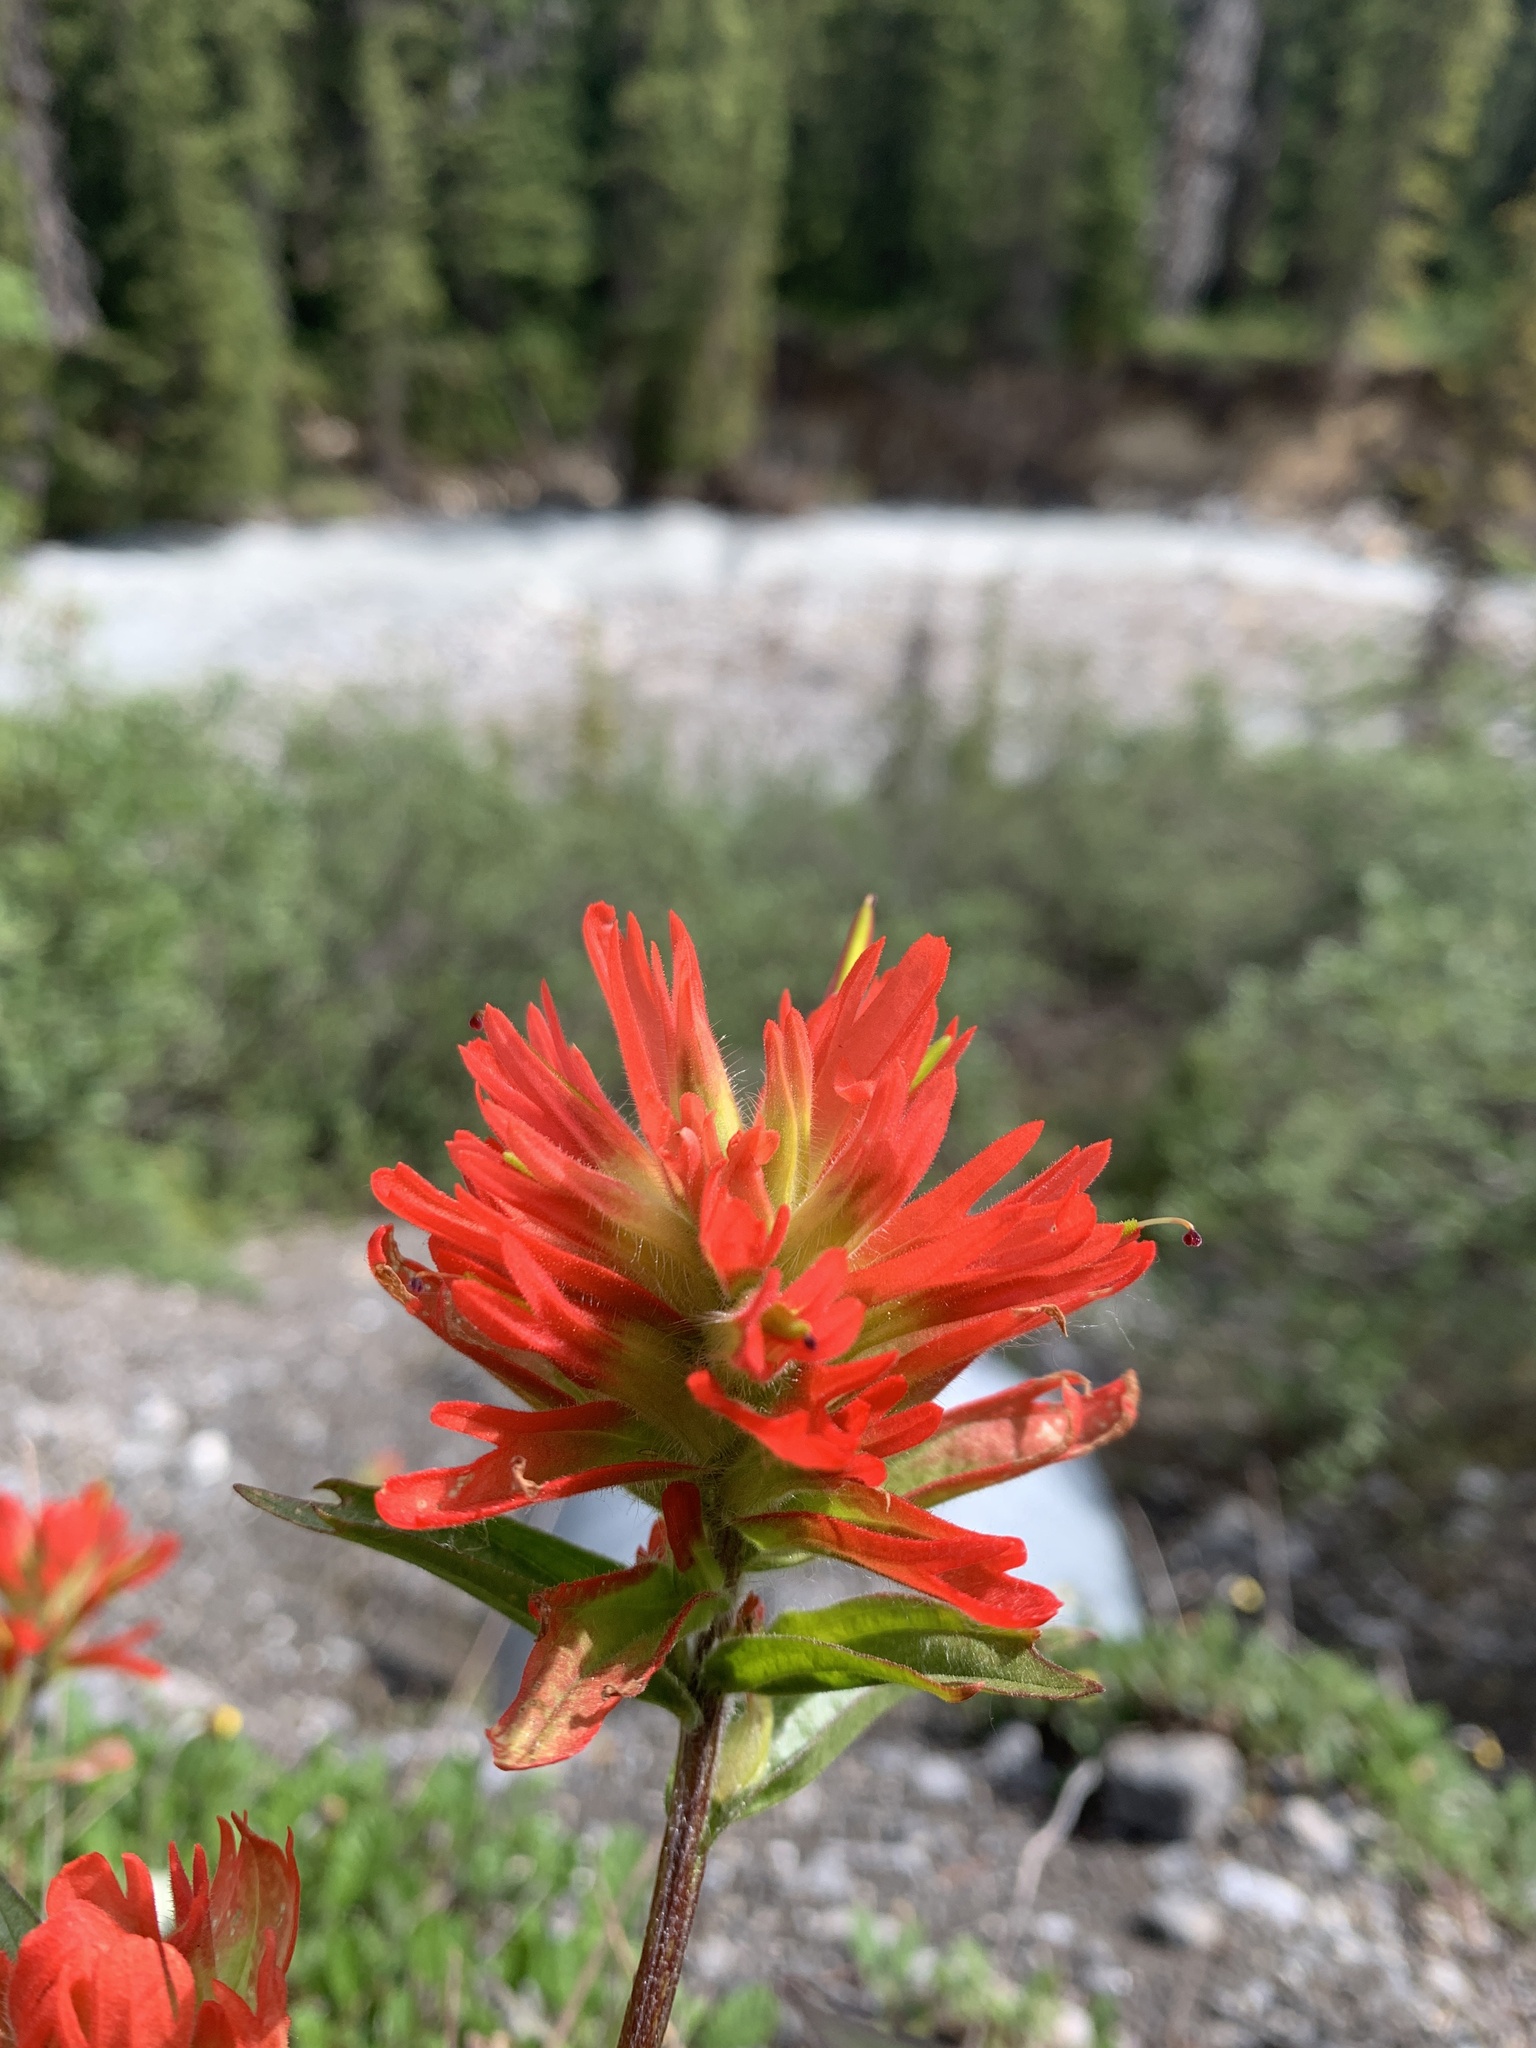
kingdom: Plantae
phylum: Tracheophyta
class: Magnoliopsida
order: Lamiales
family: Orobanchaceae
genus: Castilleja
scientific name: Castilleja miniata
